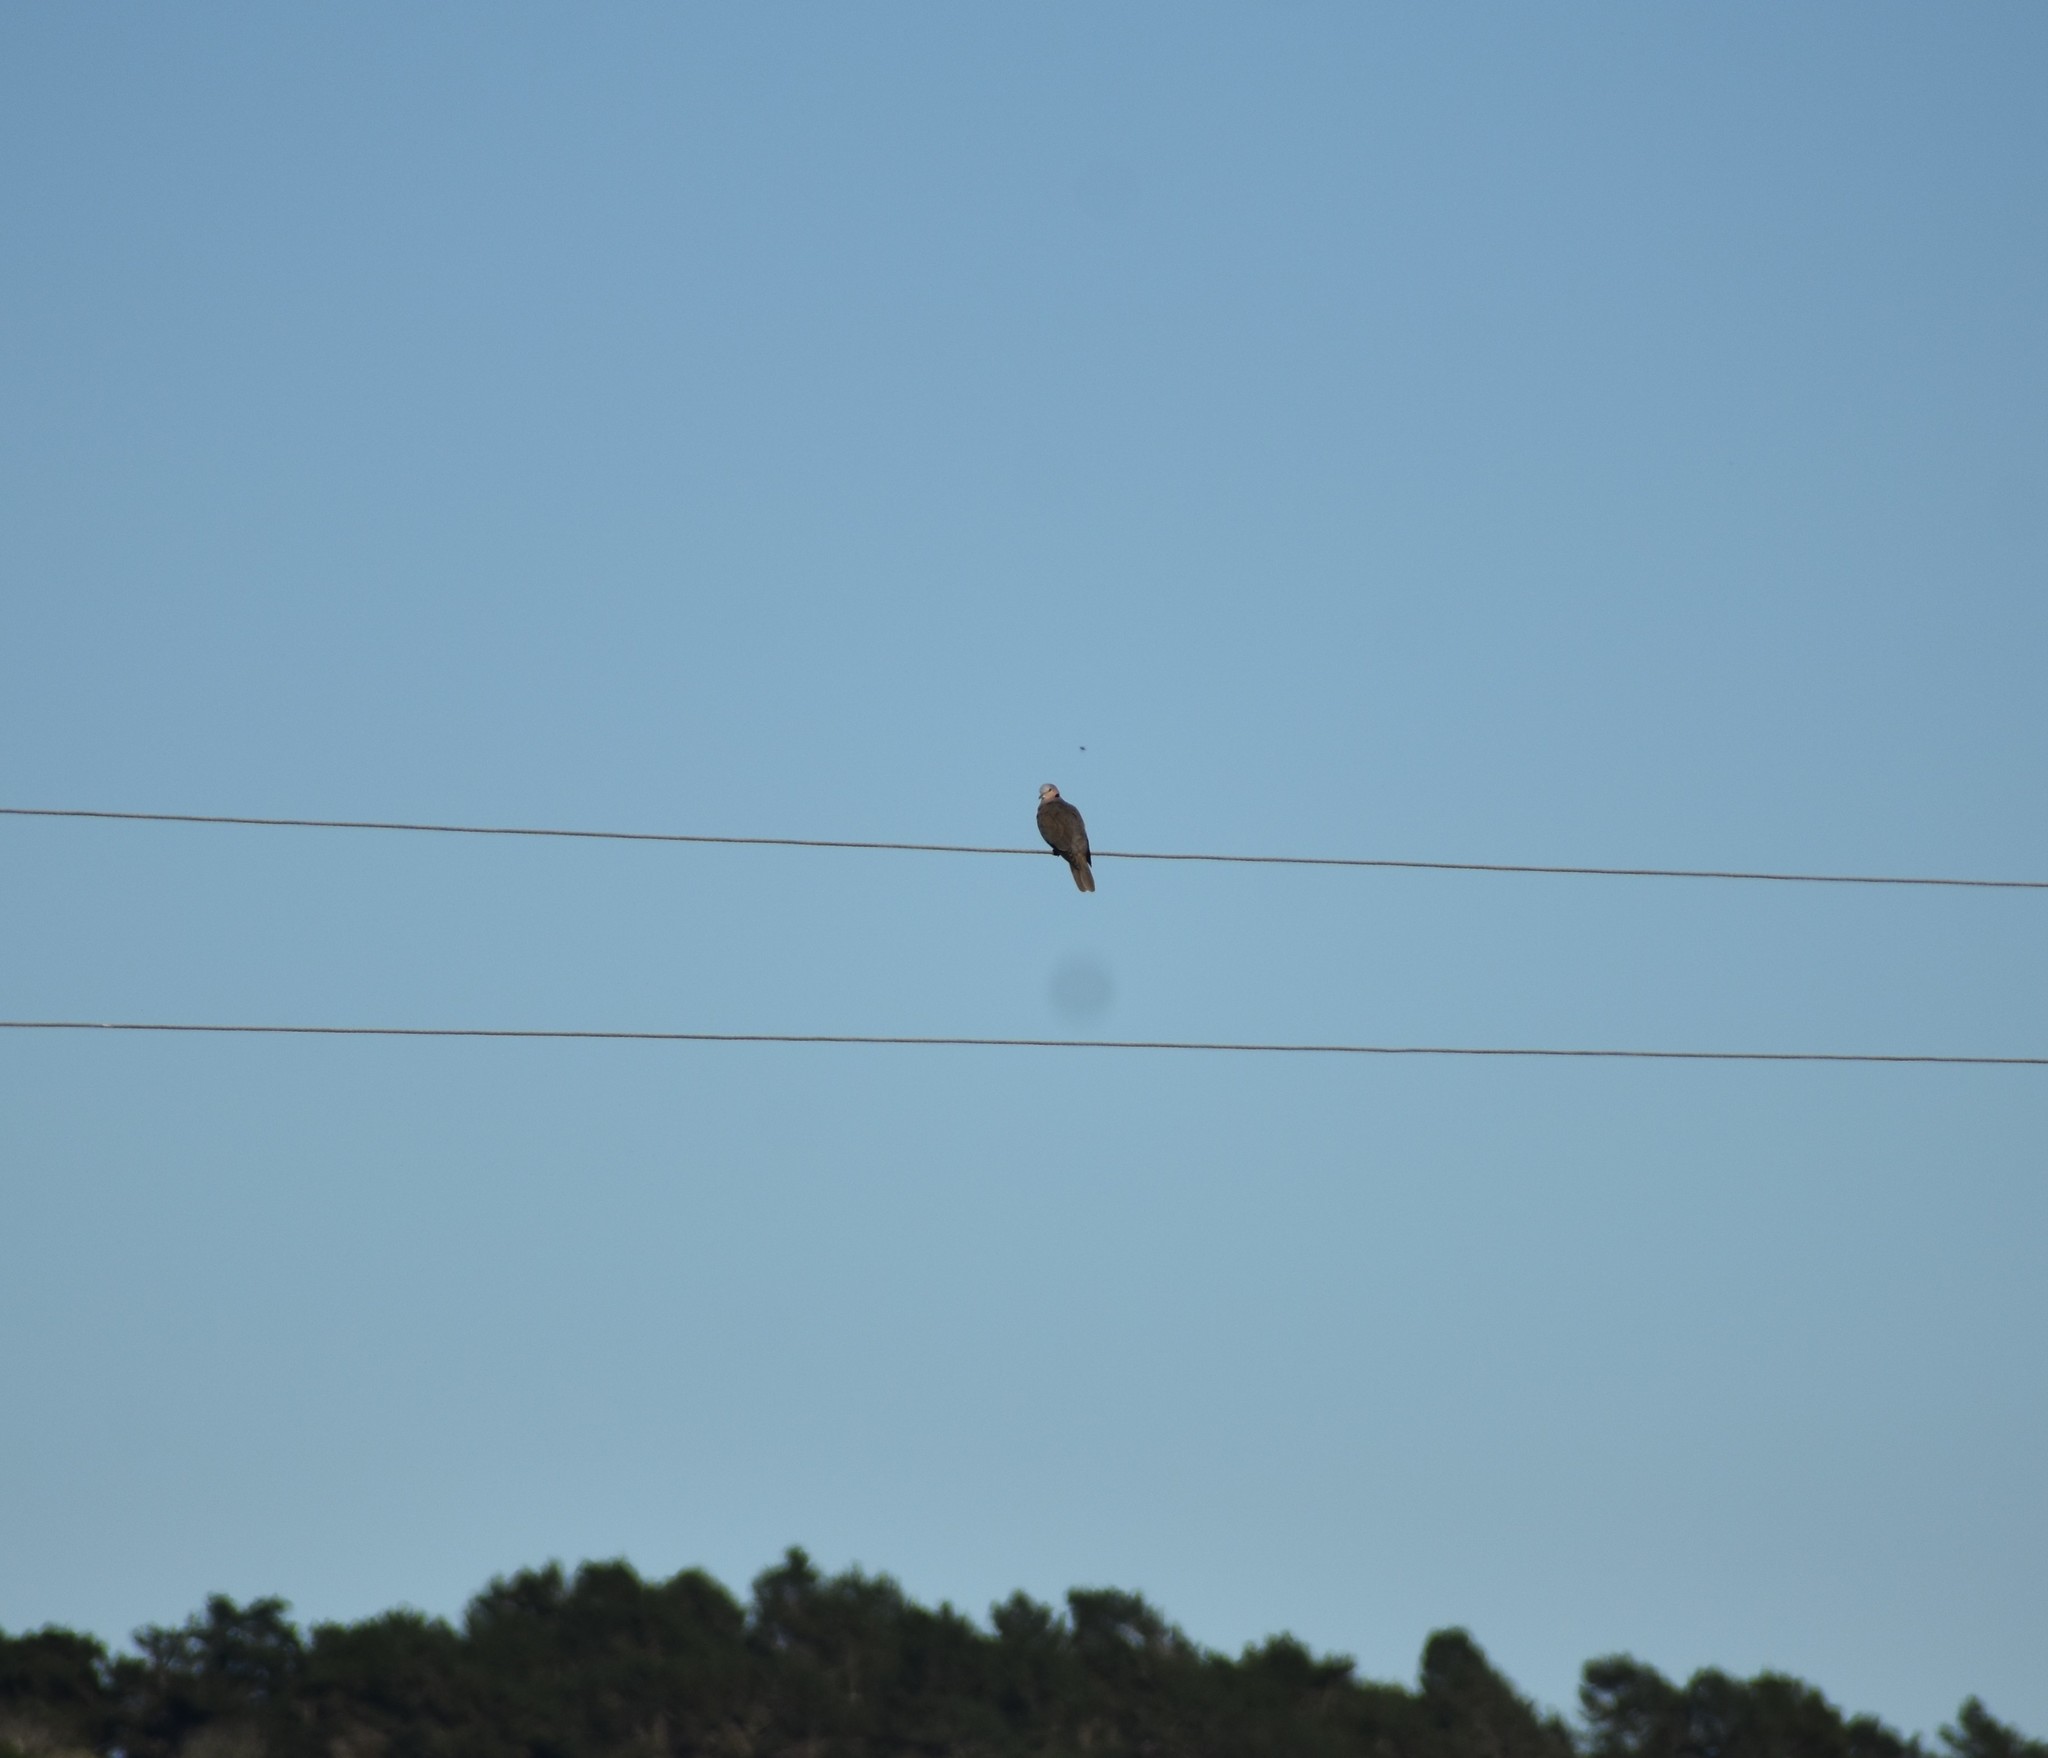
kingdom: Animalia
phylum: Chordata
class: Aves
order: Columbiformes
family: Columbidae
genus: Streptopelia
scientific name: Streptopelia semitorquata
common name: Red-eyed dove
